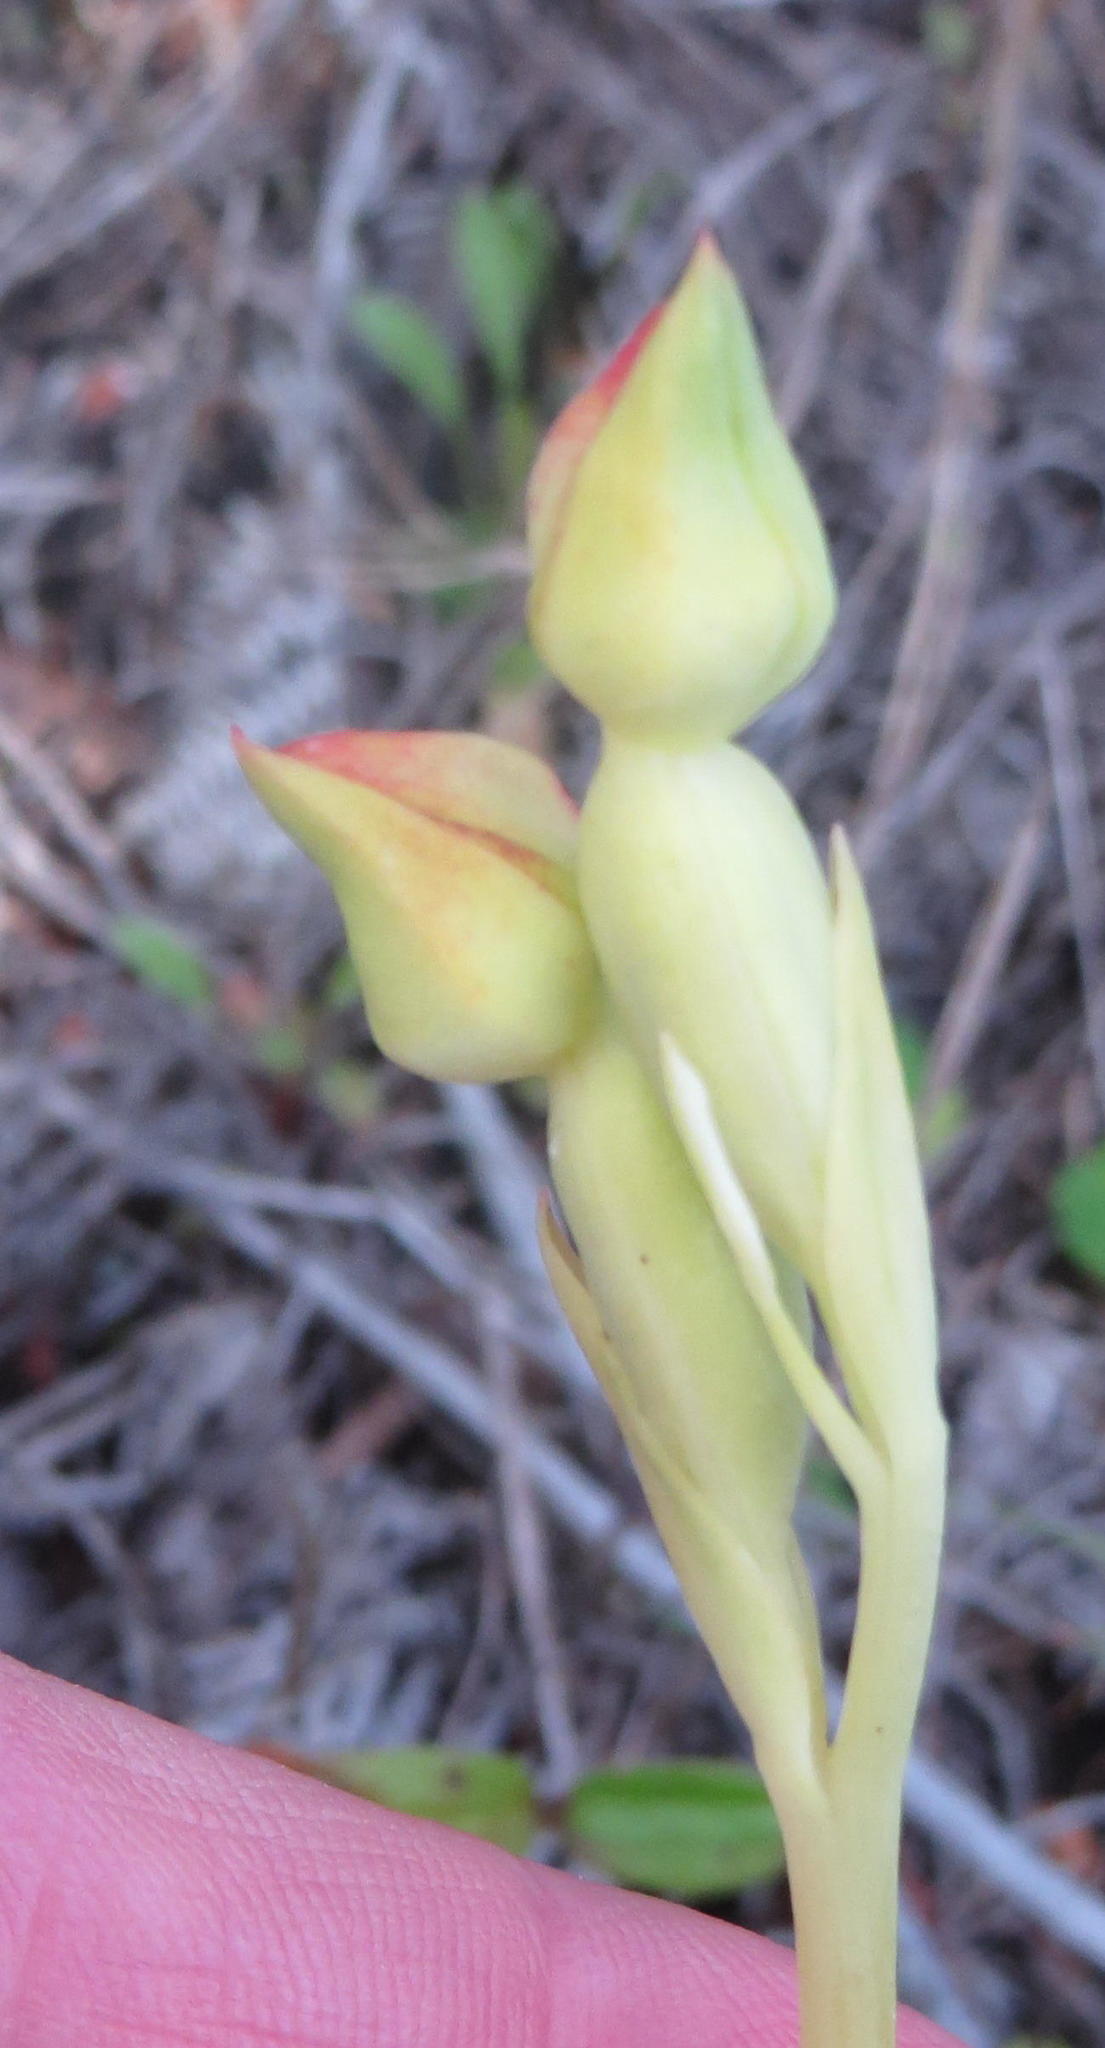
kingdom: Plantae
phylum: Tracheophyta
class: Liliopsida
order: Asparagales
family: Orchidaceae
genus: Pterygodium
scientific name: Pterygodium cleistogamum
